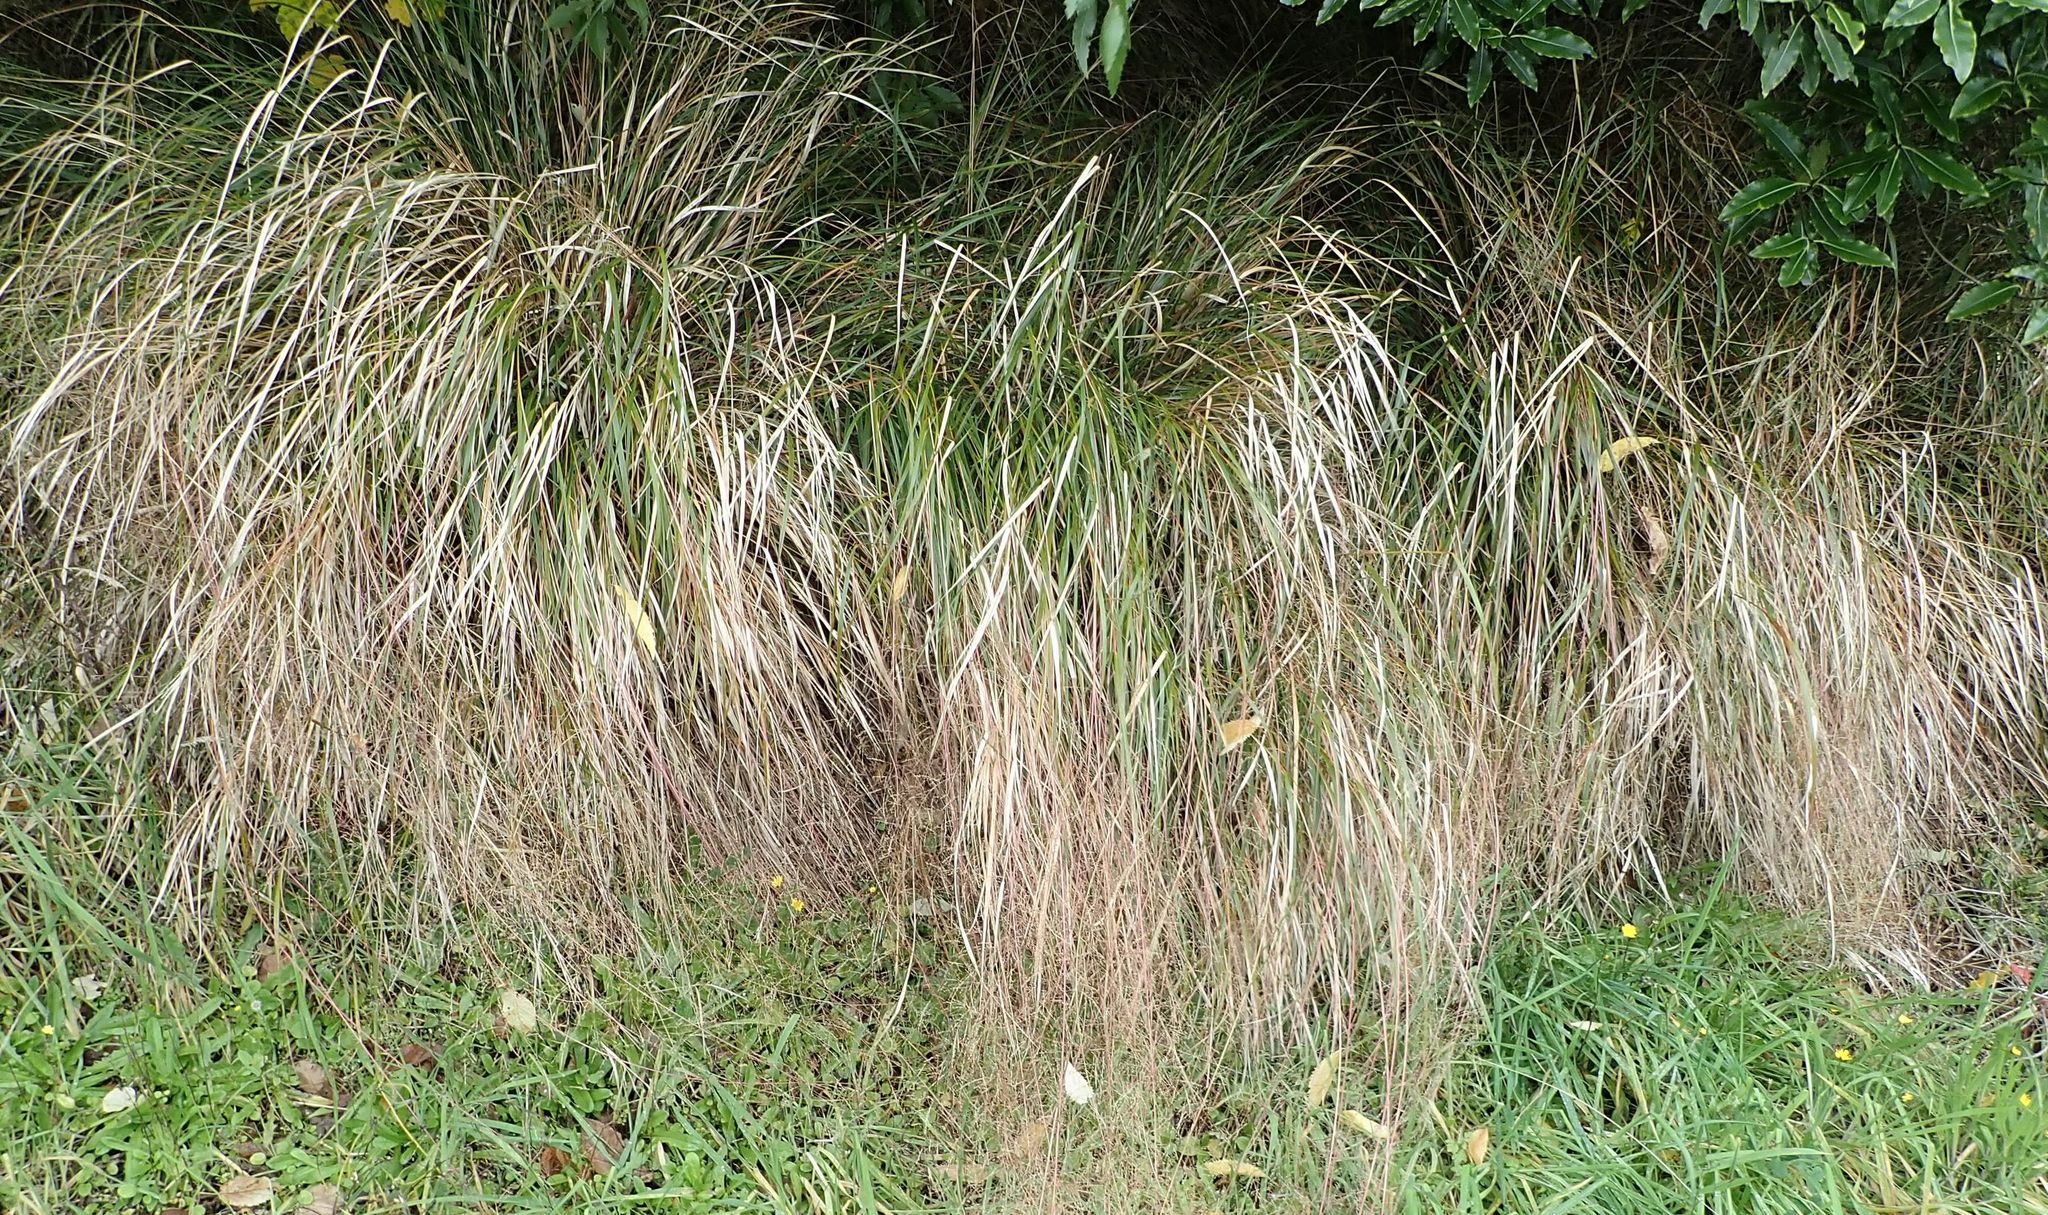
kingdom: Plantae
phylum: Tracheophyta
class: Liliopsida
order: Poales
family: Poaceae
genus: Anemanthele
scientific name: Anemanthele lessoniana
